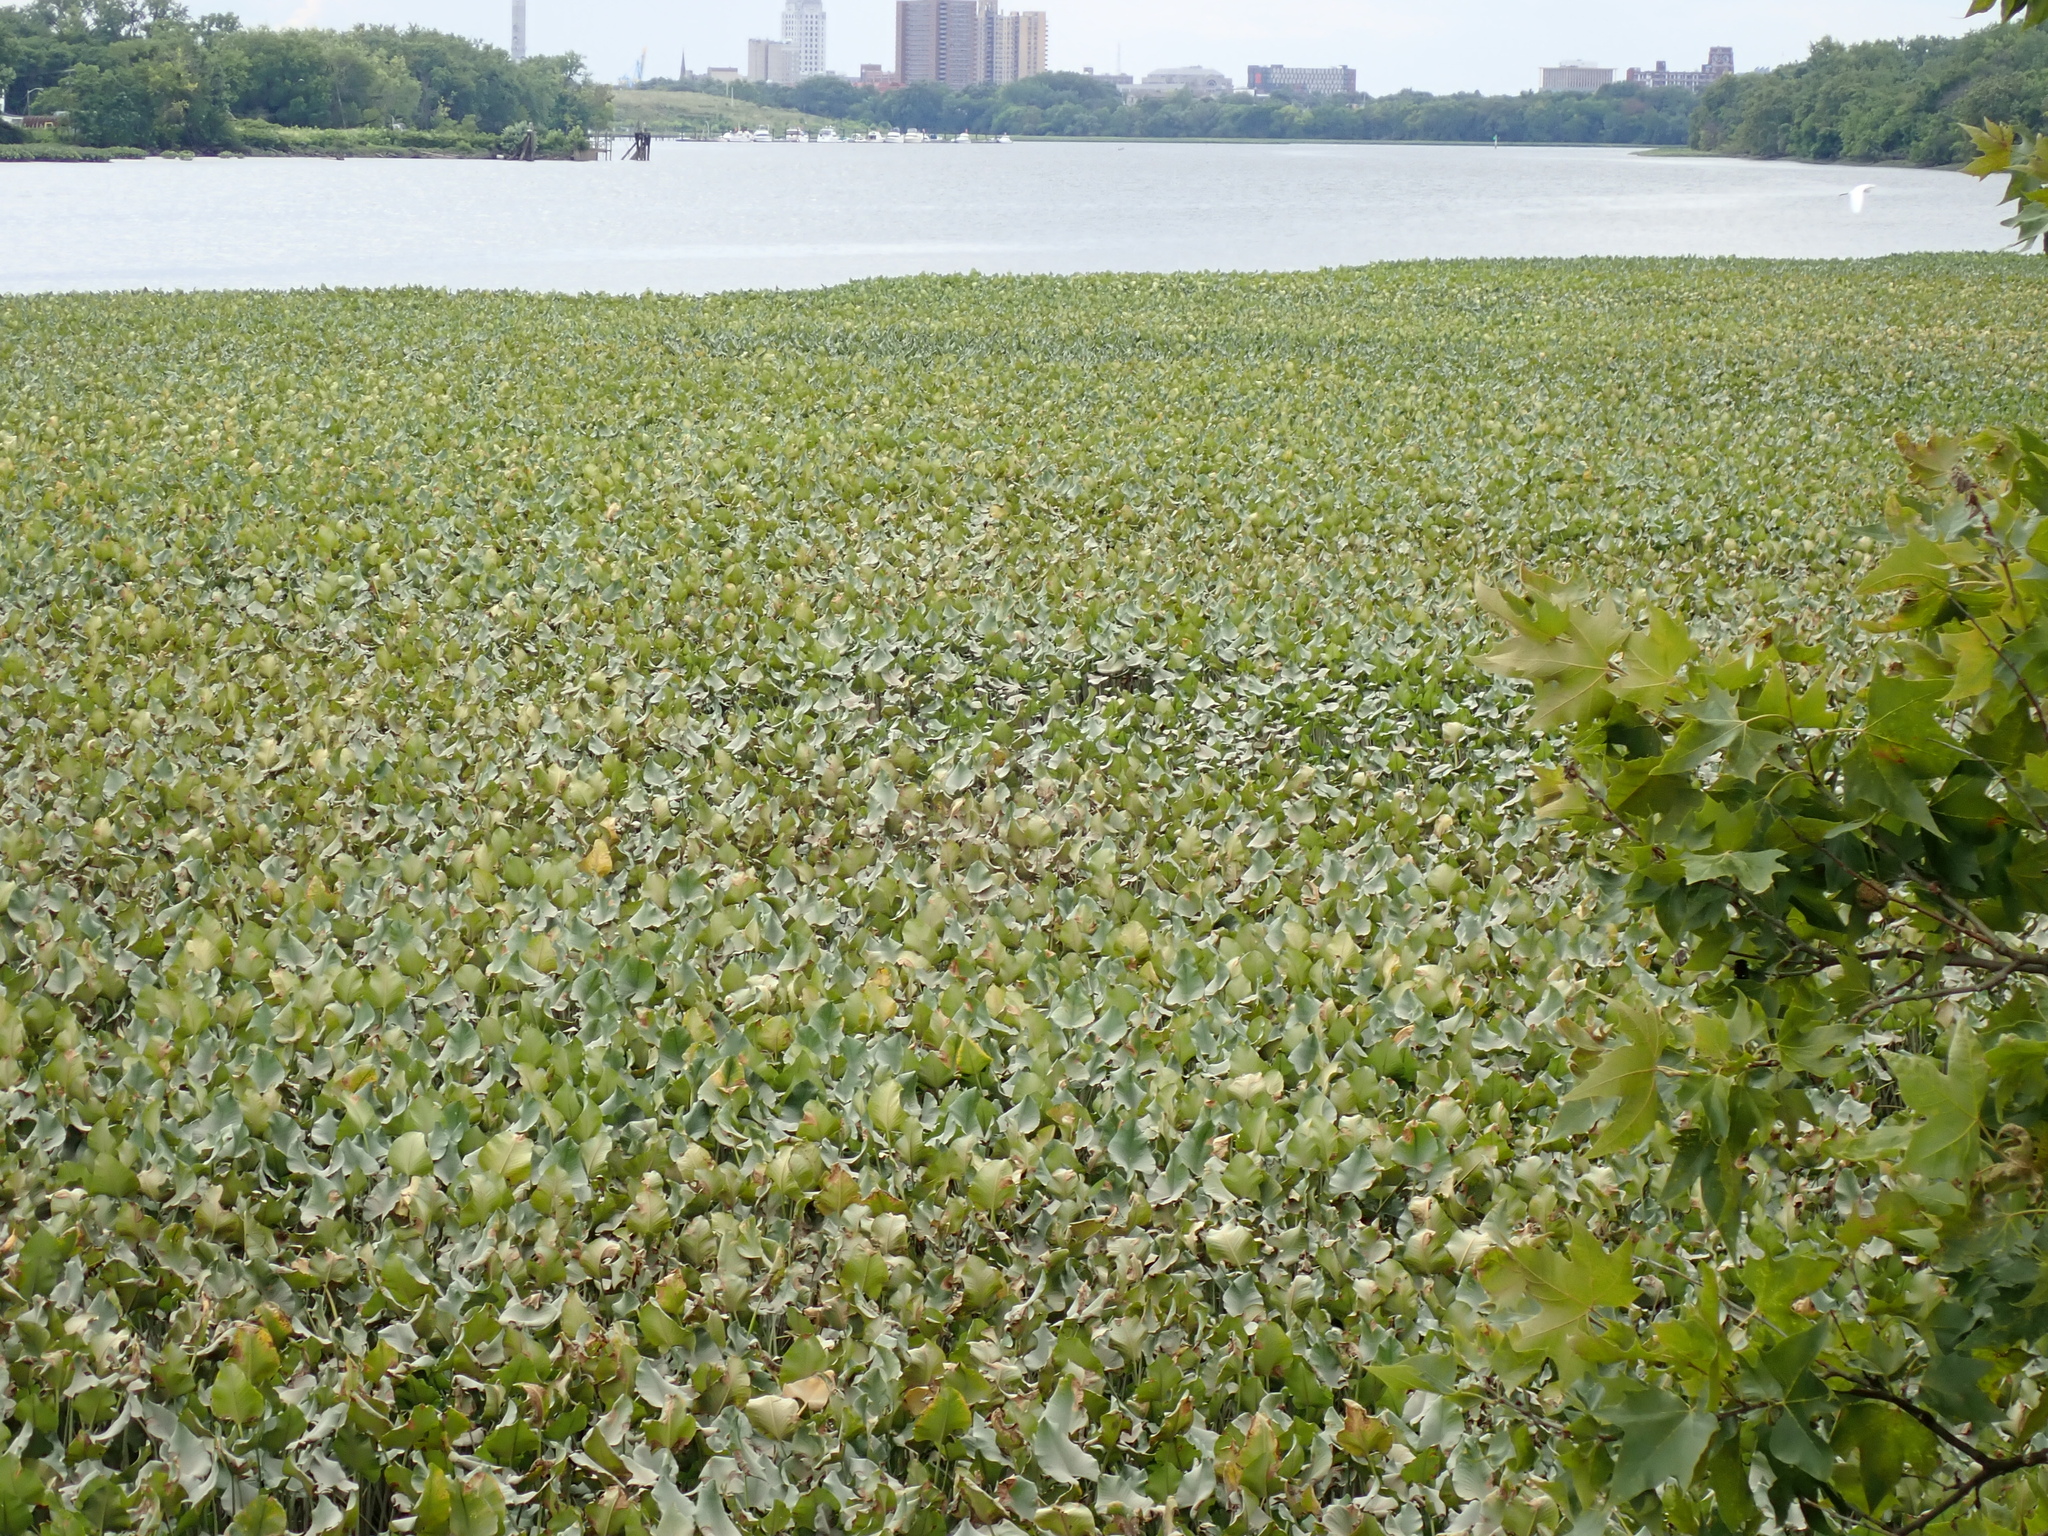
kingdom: Plantae
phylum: Tracheophyta
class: Magnoliopsida
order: Nymphaeales
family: Nymphaeaceae
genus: Nuphar
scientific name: Nuphar advena
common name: Spatter-dock
